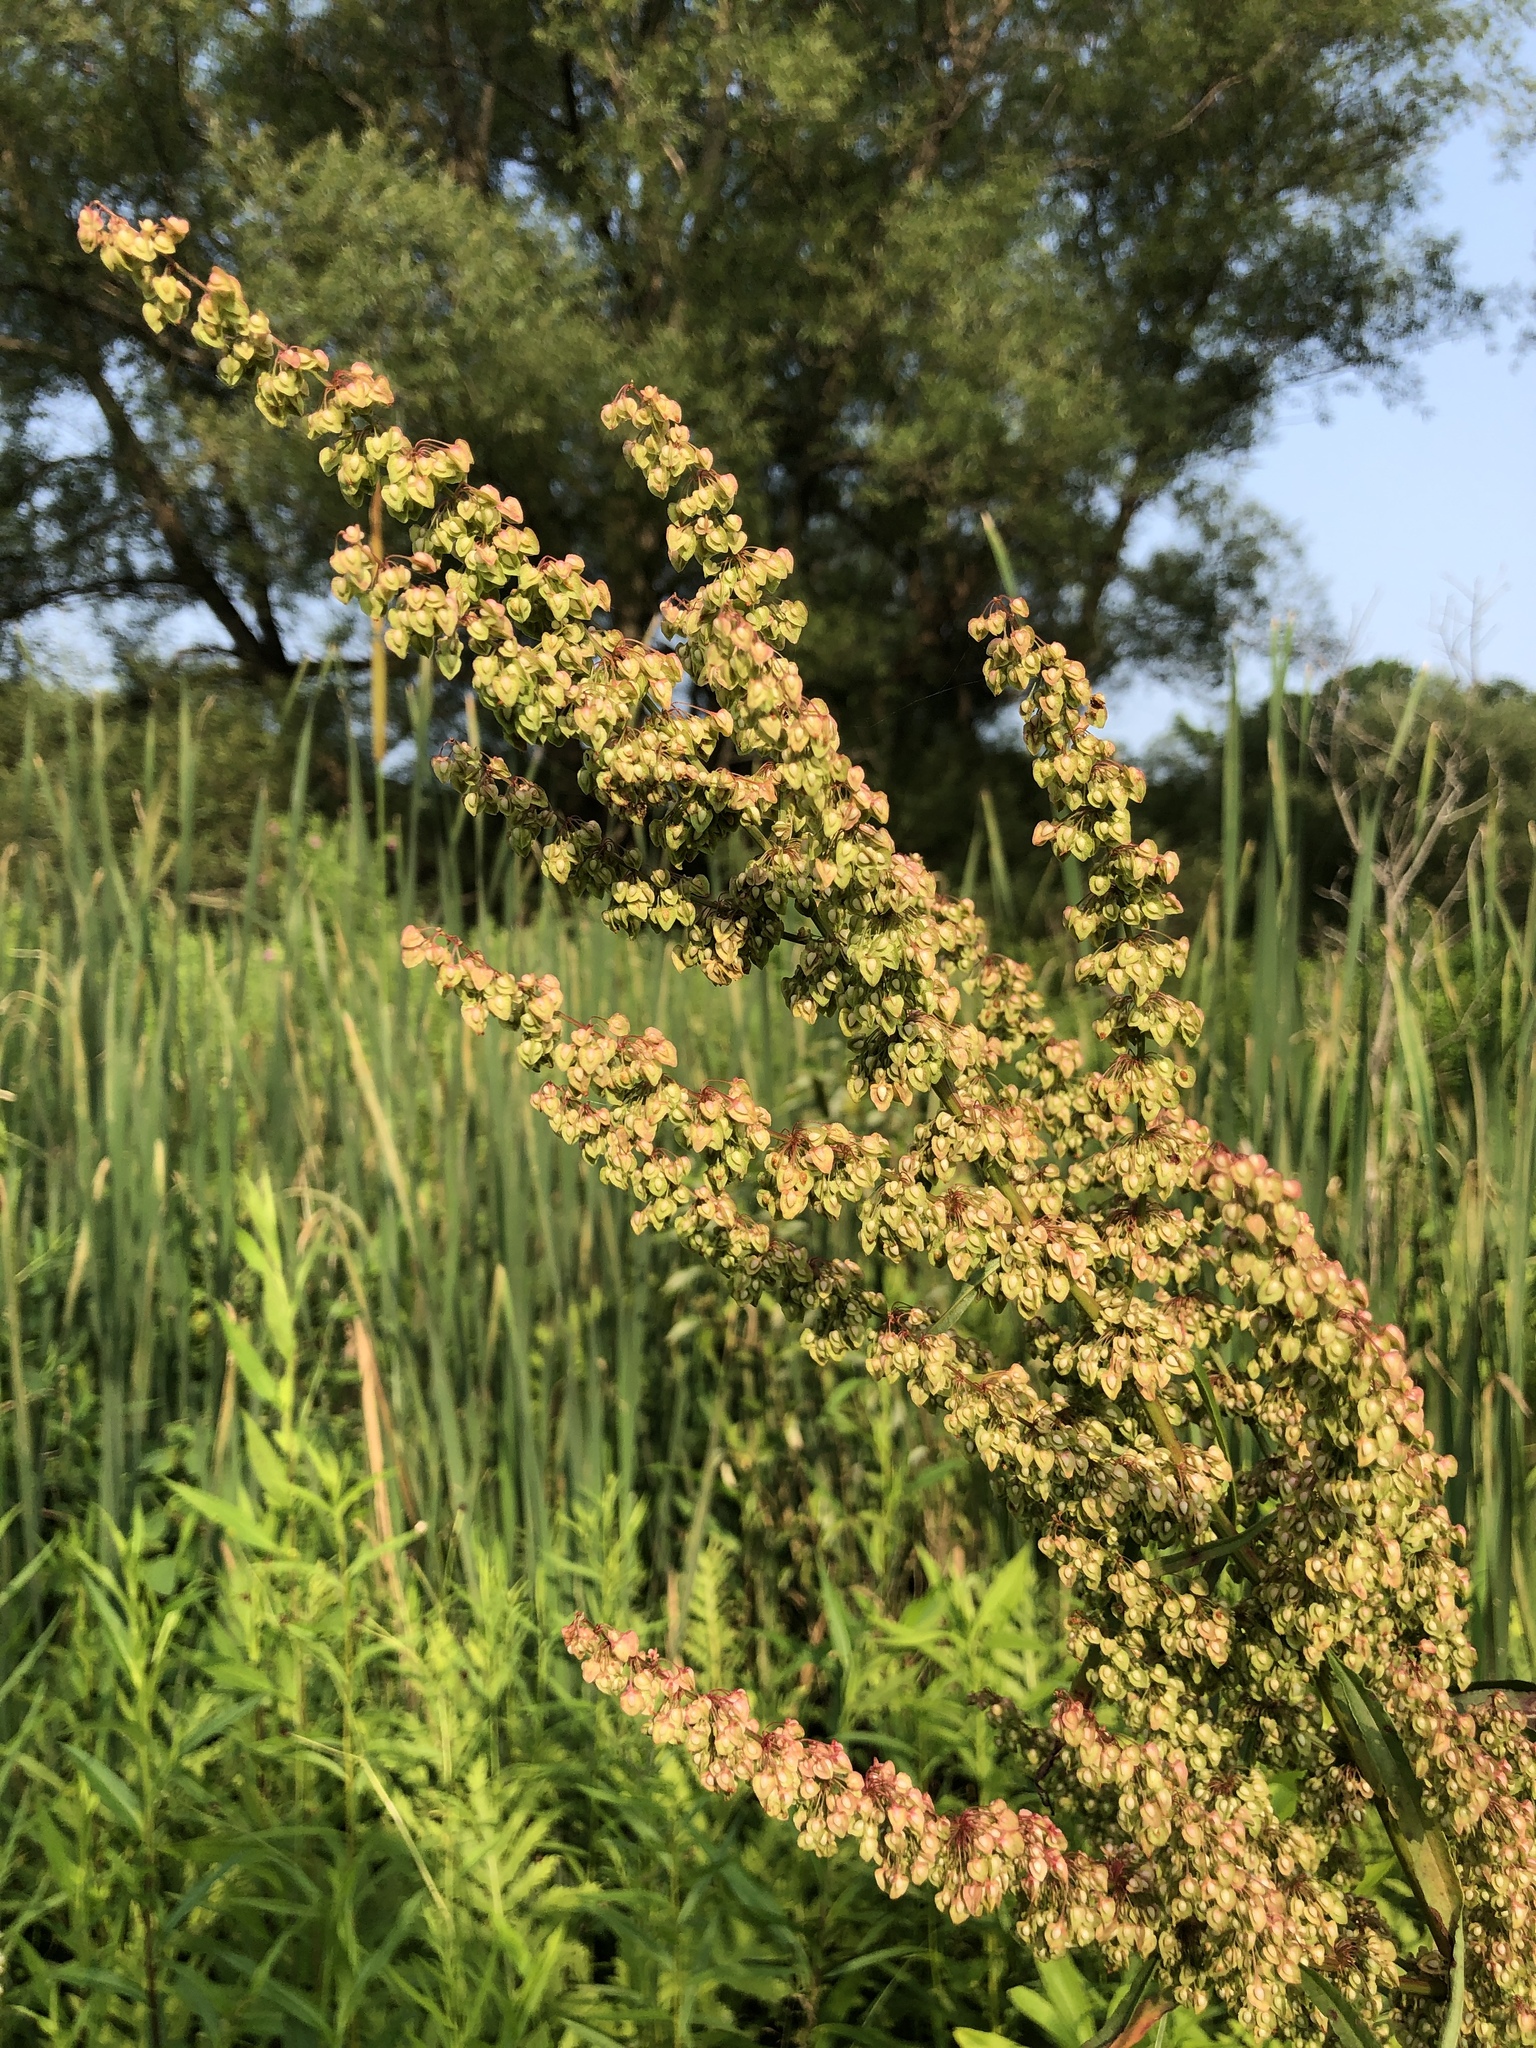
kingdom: Plantae
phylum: Tracheophyta
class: Magnoliopsida
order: Caryophyllales
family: Polygonaceae
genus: Rumex
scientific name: Rumex crispus
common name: Curled dock
